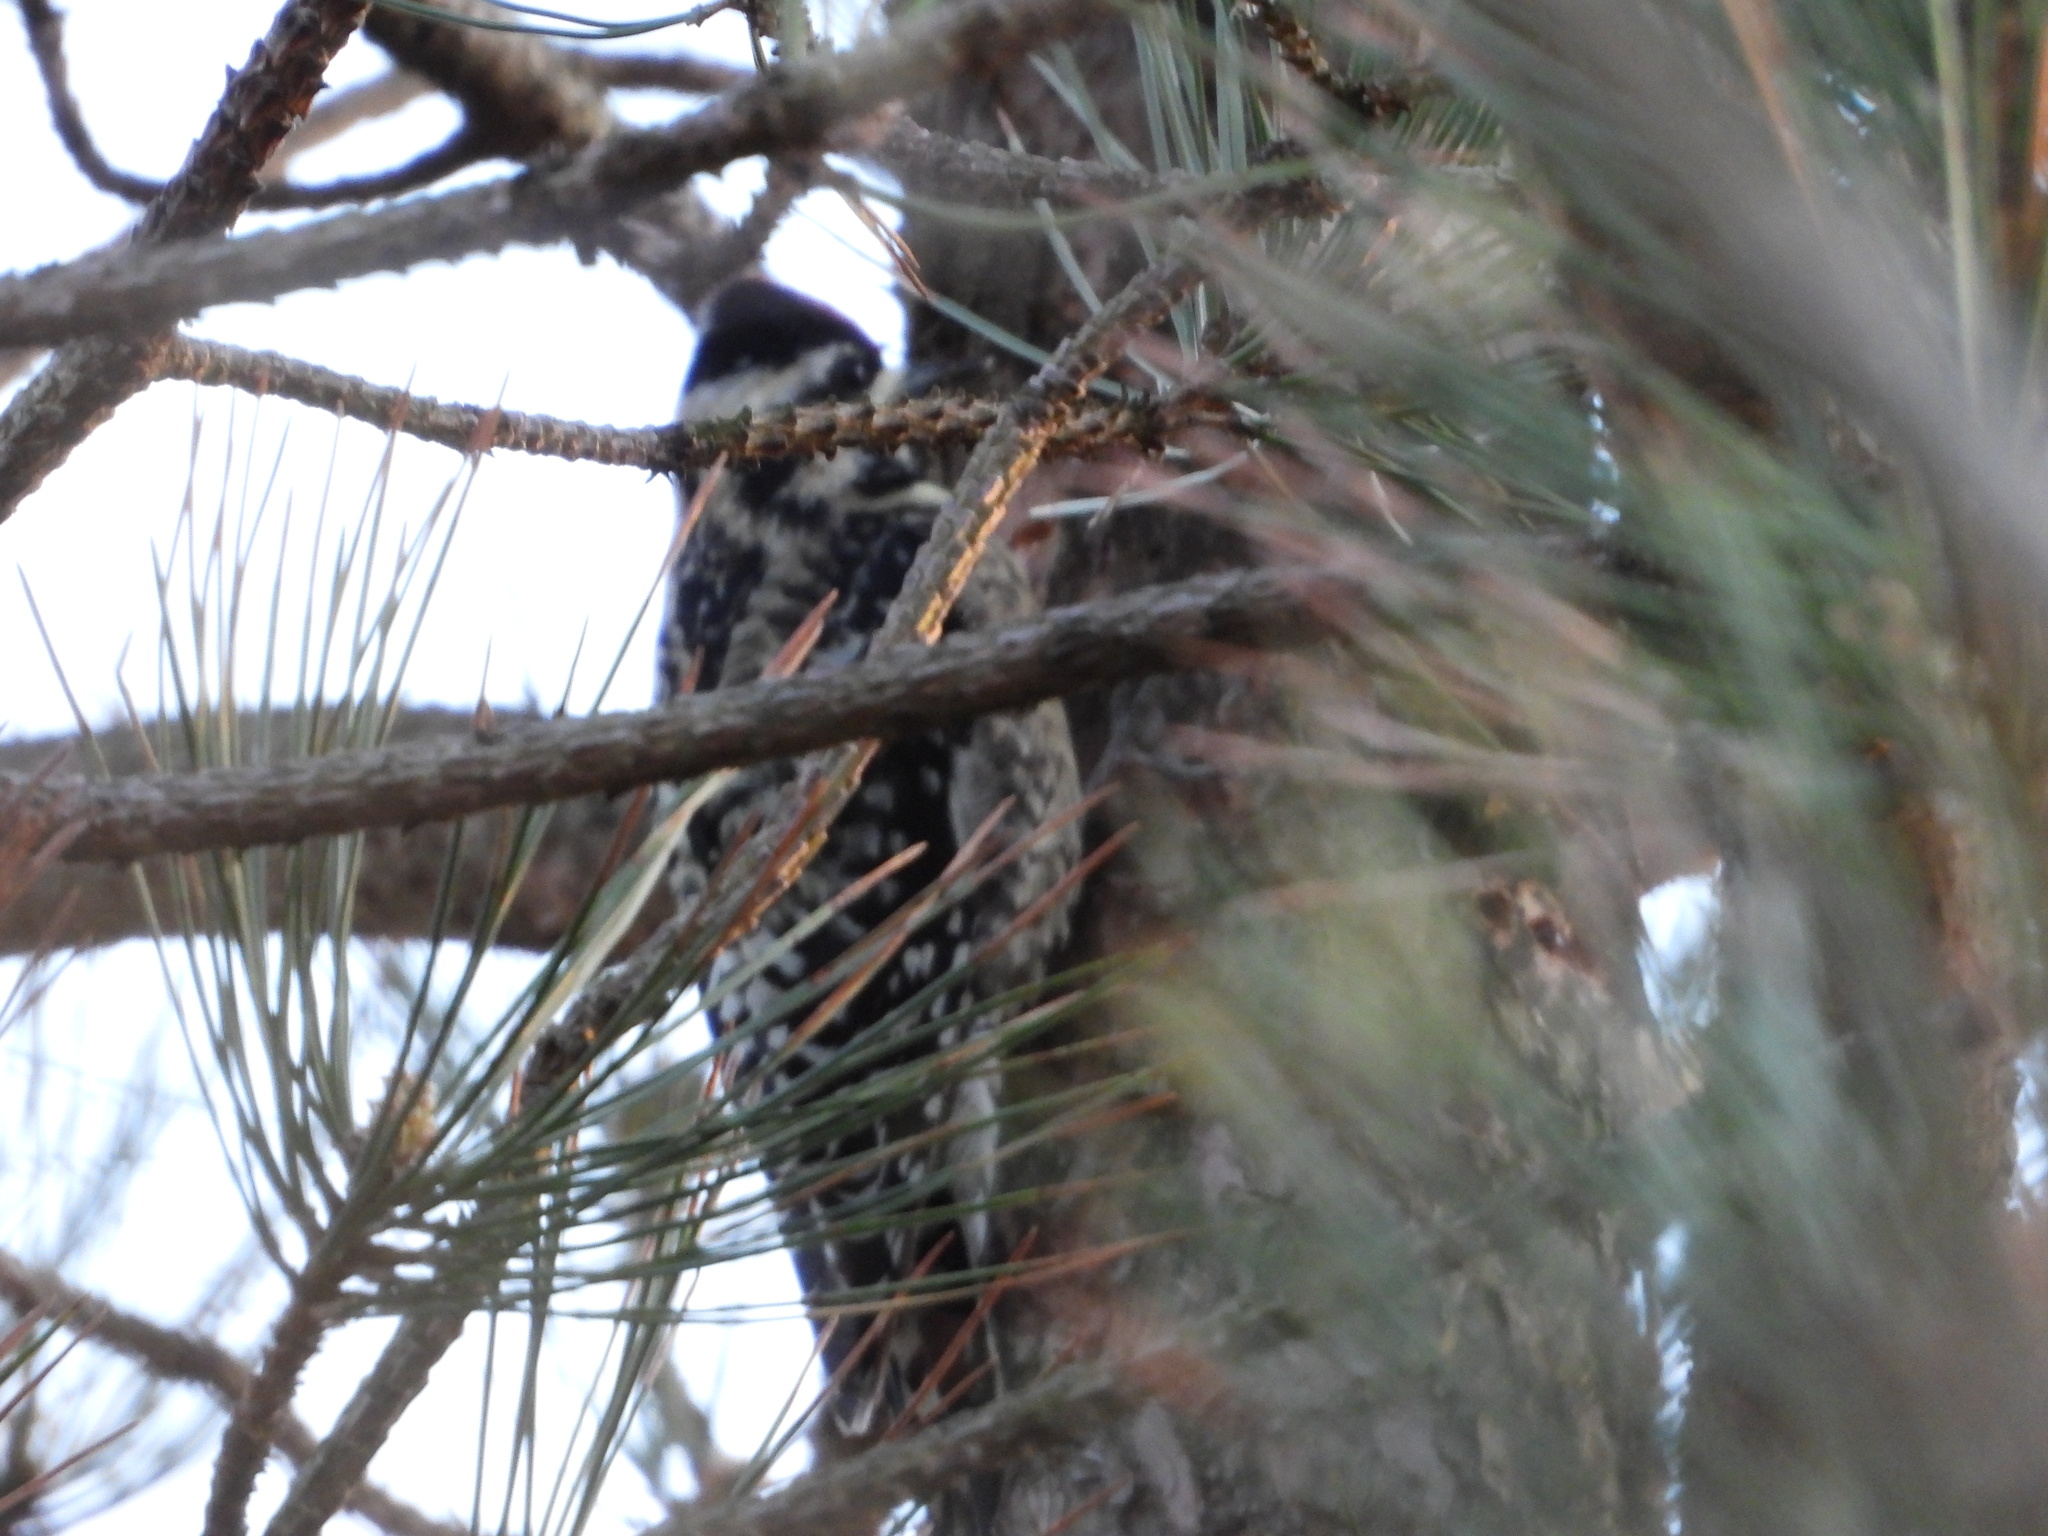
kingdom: Animalia
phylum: Chordata
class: Aves
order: Piciformes
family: Picidae
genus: Sphyrapicus
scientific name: Sphyrapicus varius
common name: Yellow-bellied sapsucker
